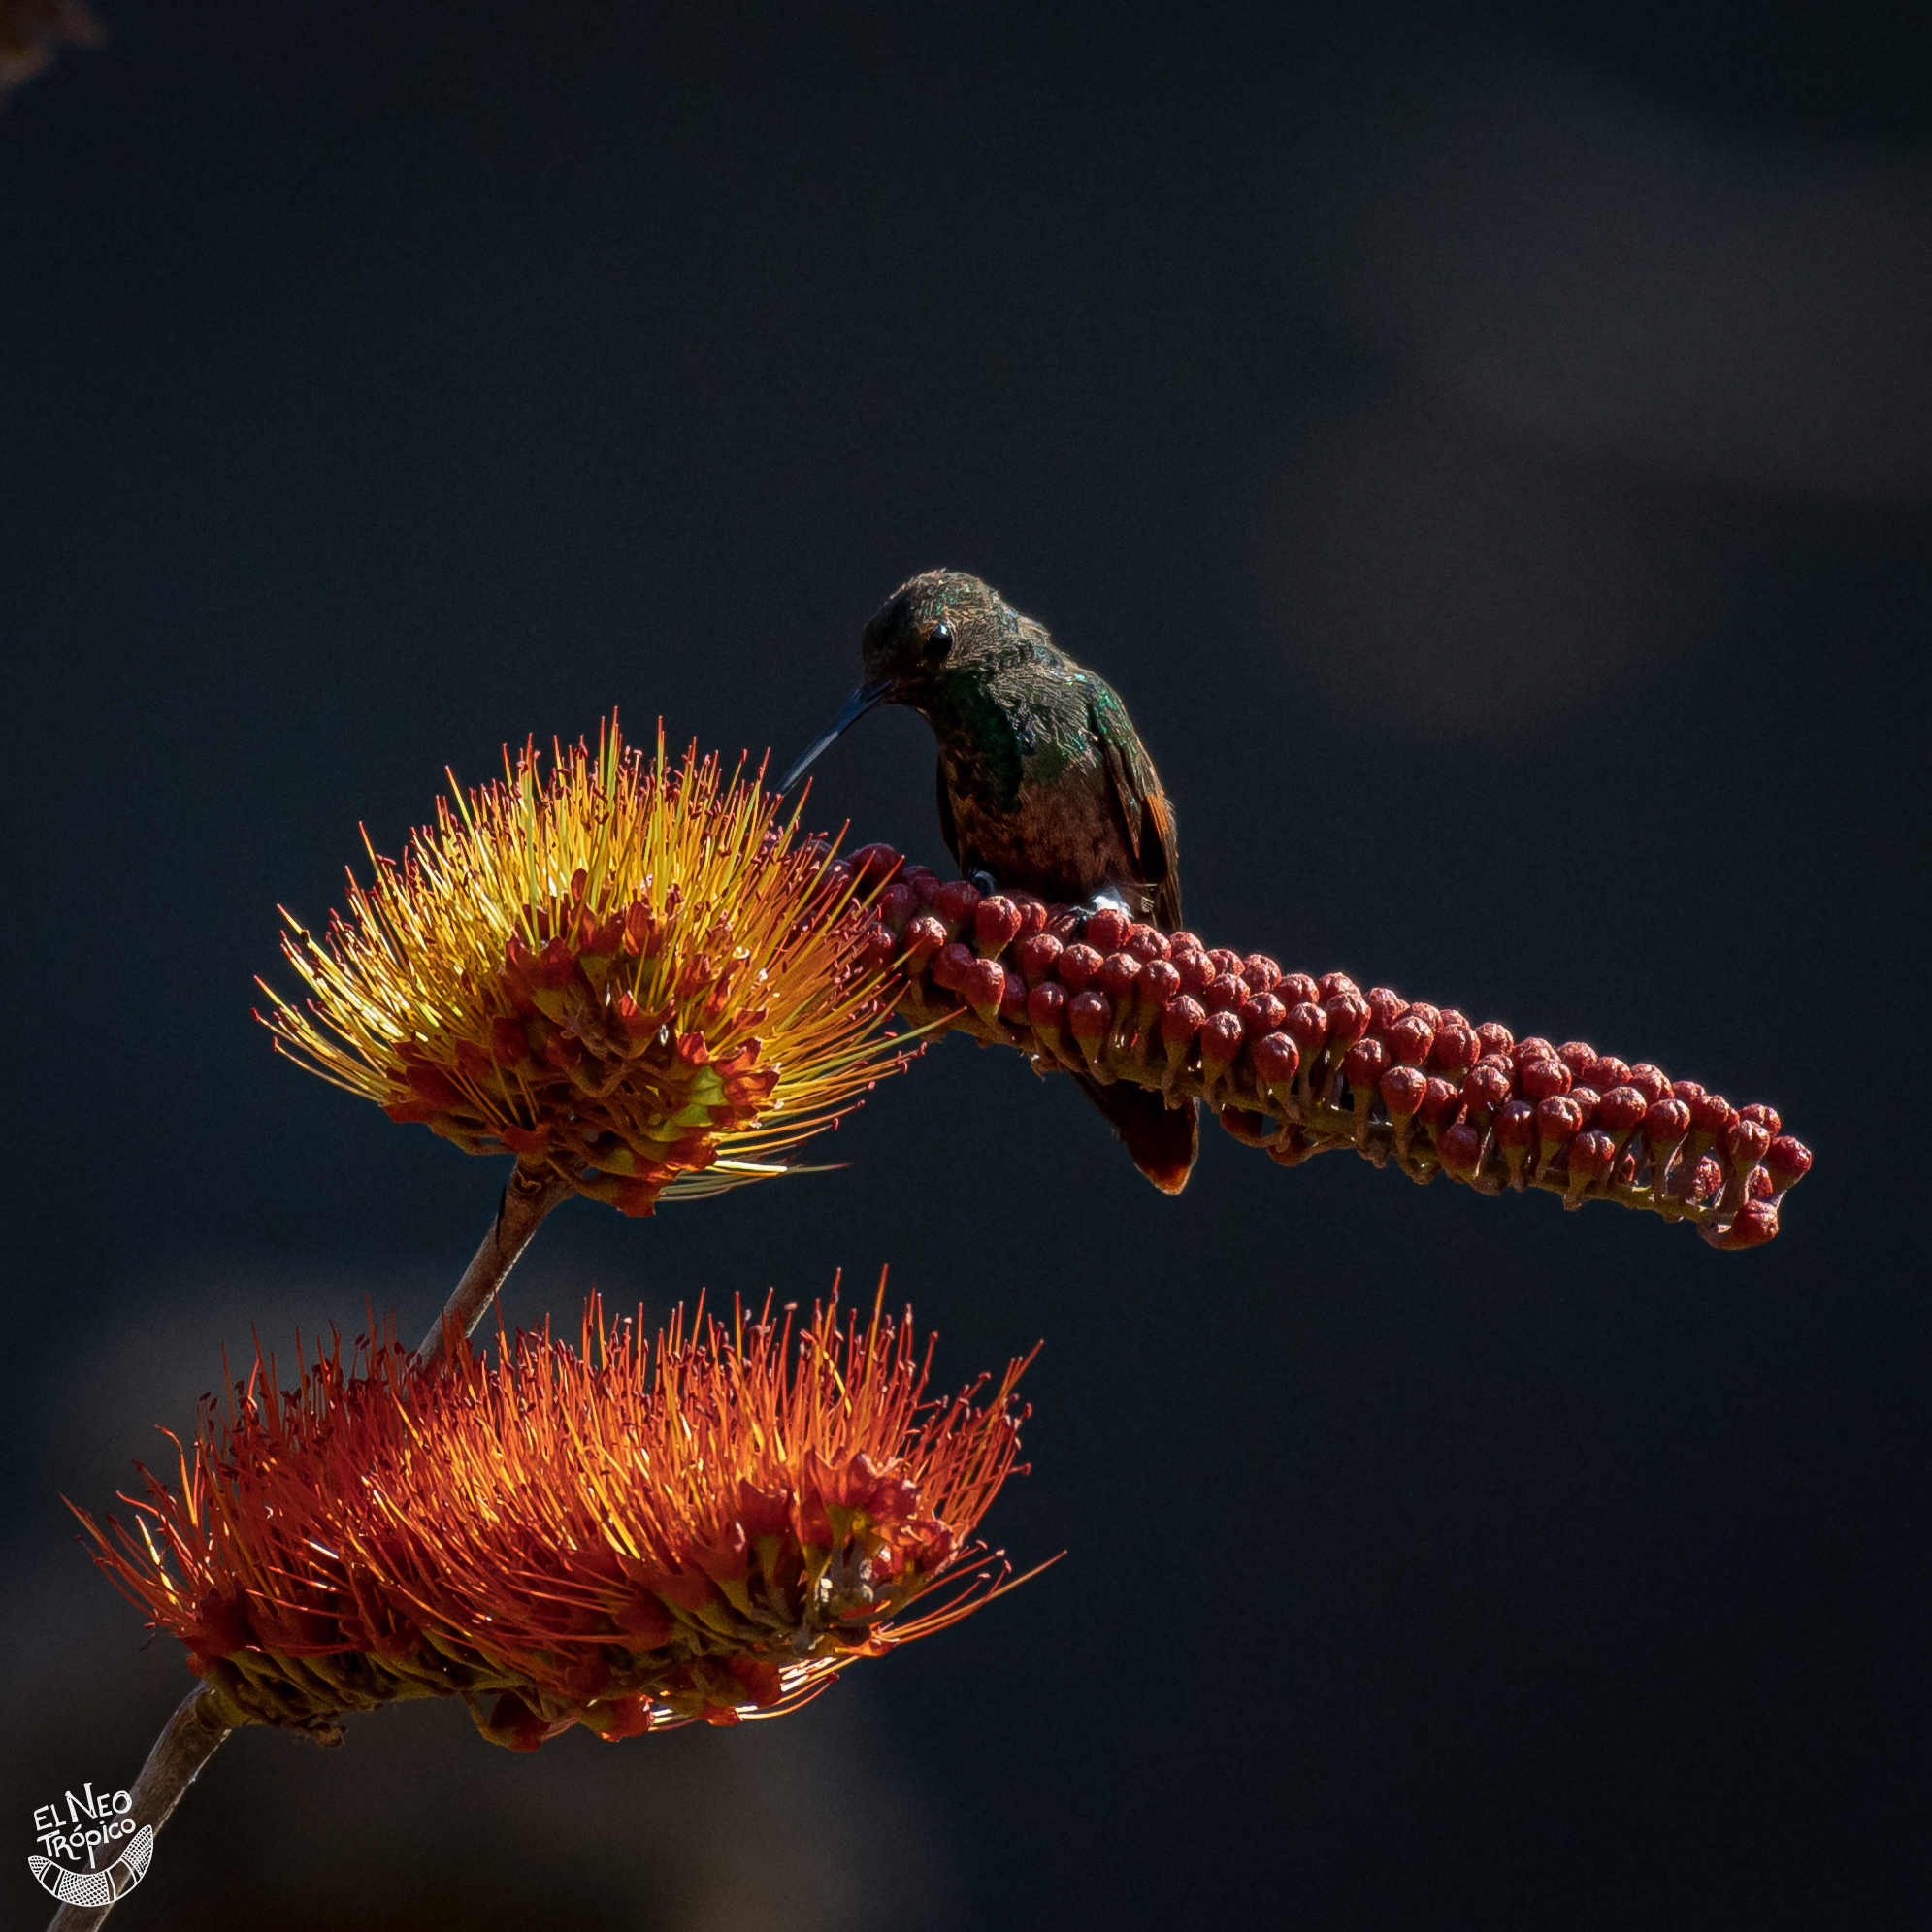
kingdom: Animalia
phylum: Chordata
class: Aves
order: Apodiformes
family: Trochilidae
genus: Saucerottia
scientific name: Saucerottia beryllina
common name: Berylline hummingbird
